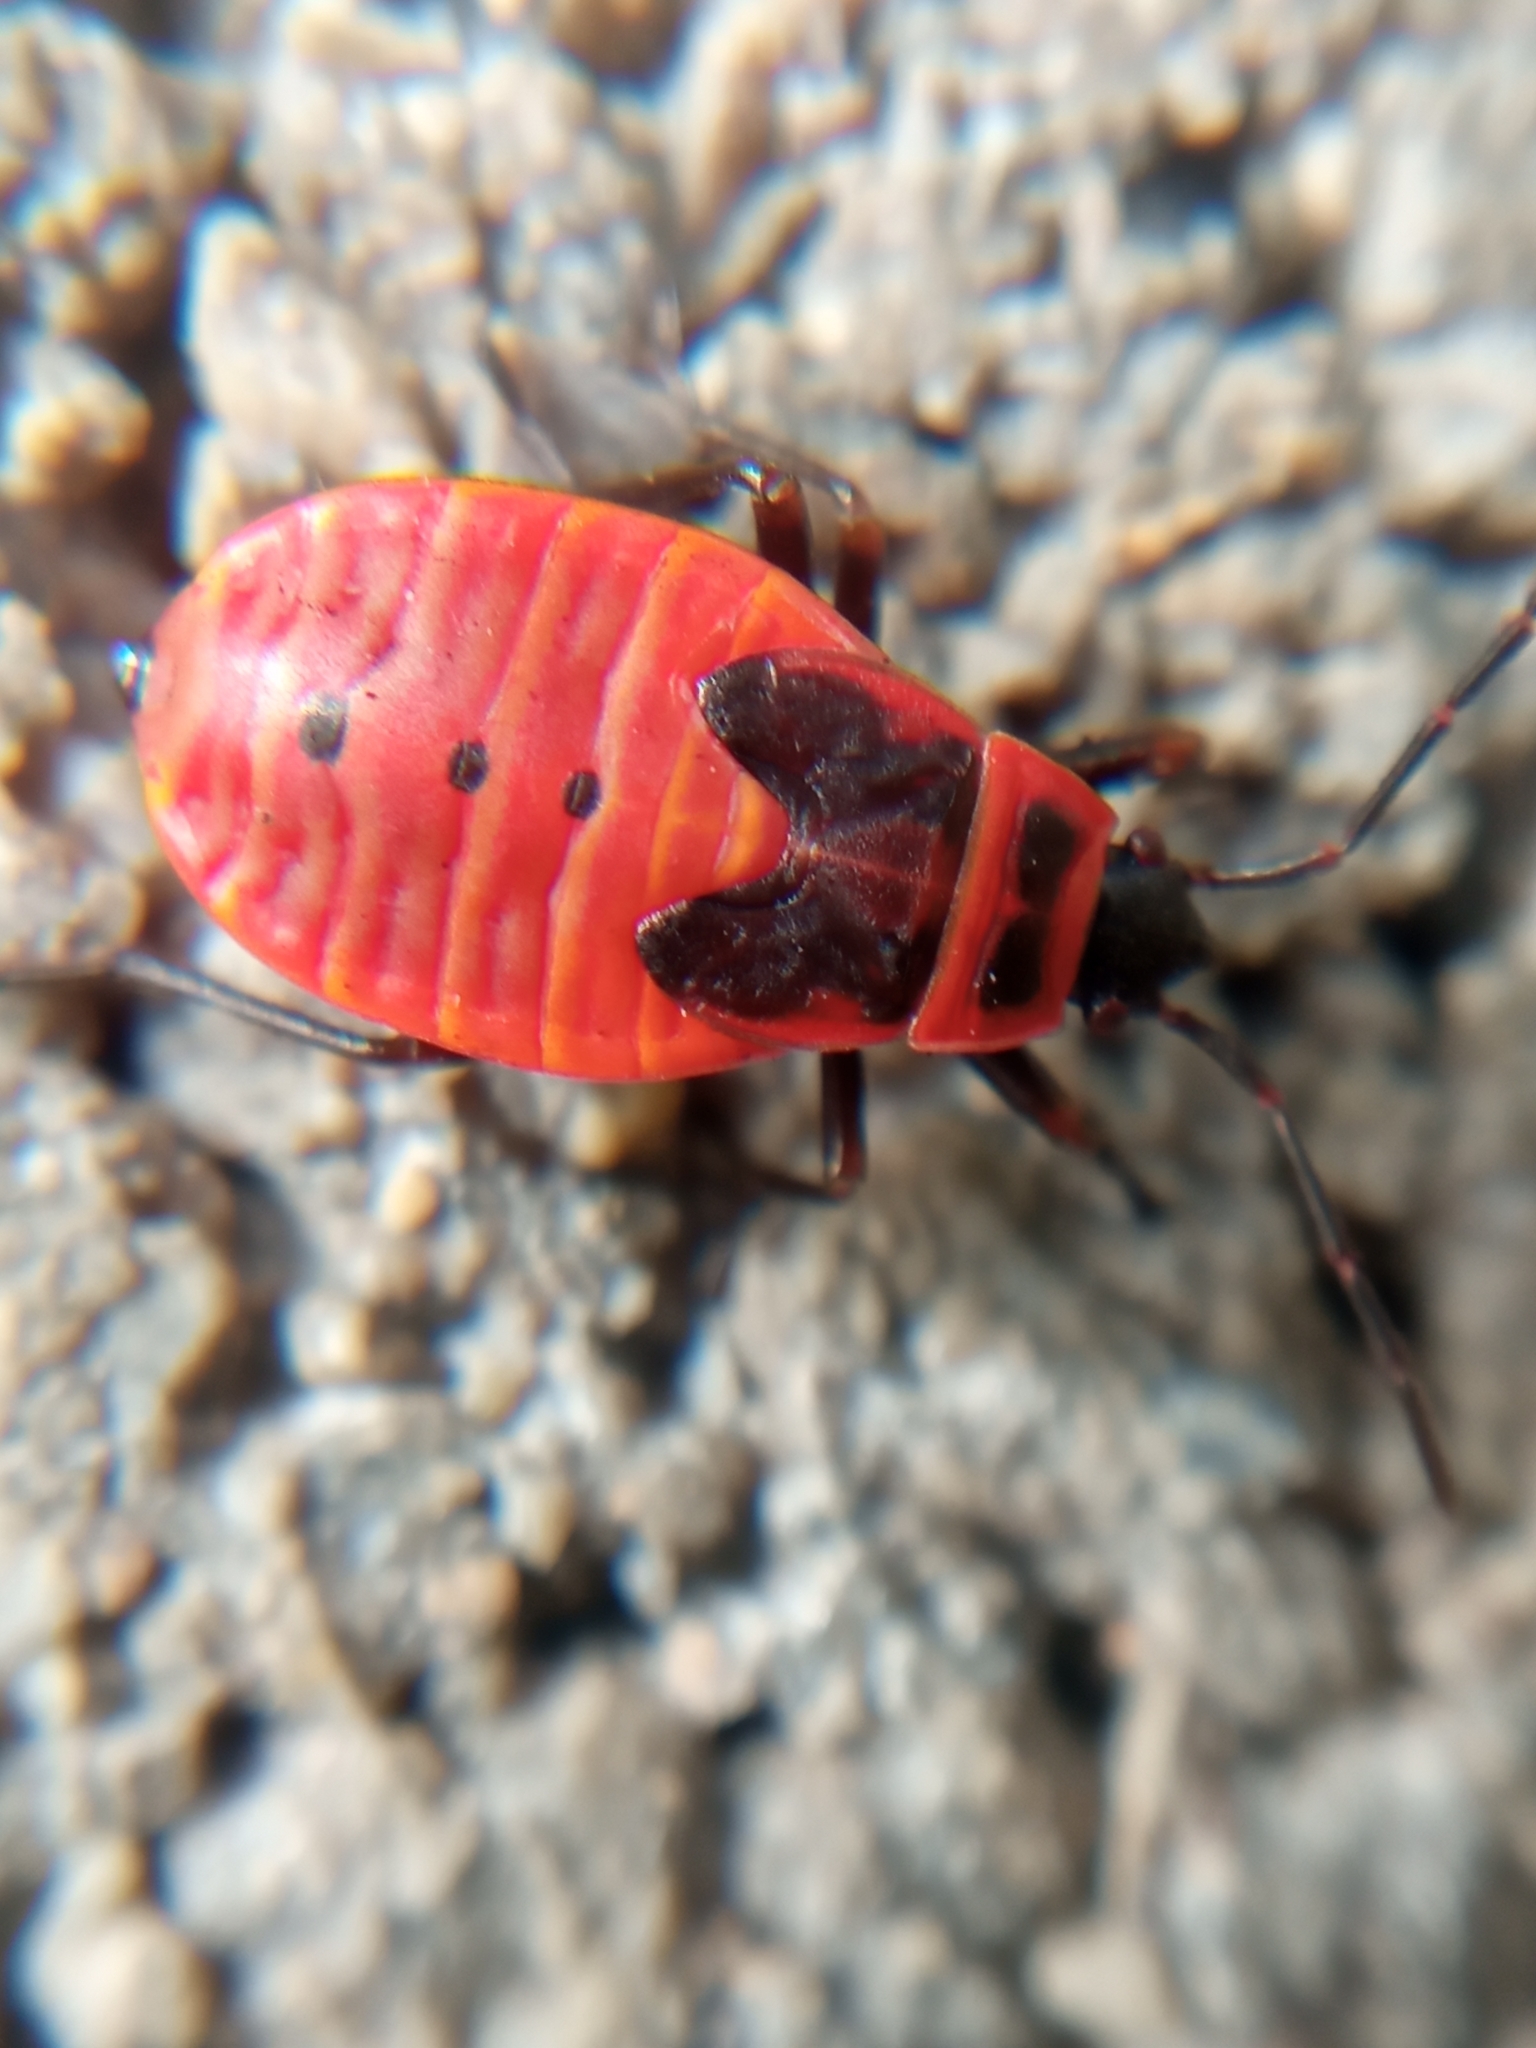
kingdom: Animalia
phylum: Arthropoda
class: Insecta
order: Hemiptera
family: Pyrrhocoridae
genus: Pyrrhocoris
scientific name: Pyrrhocoris apterus
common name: Firebug
